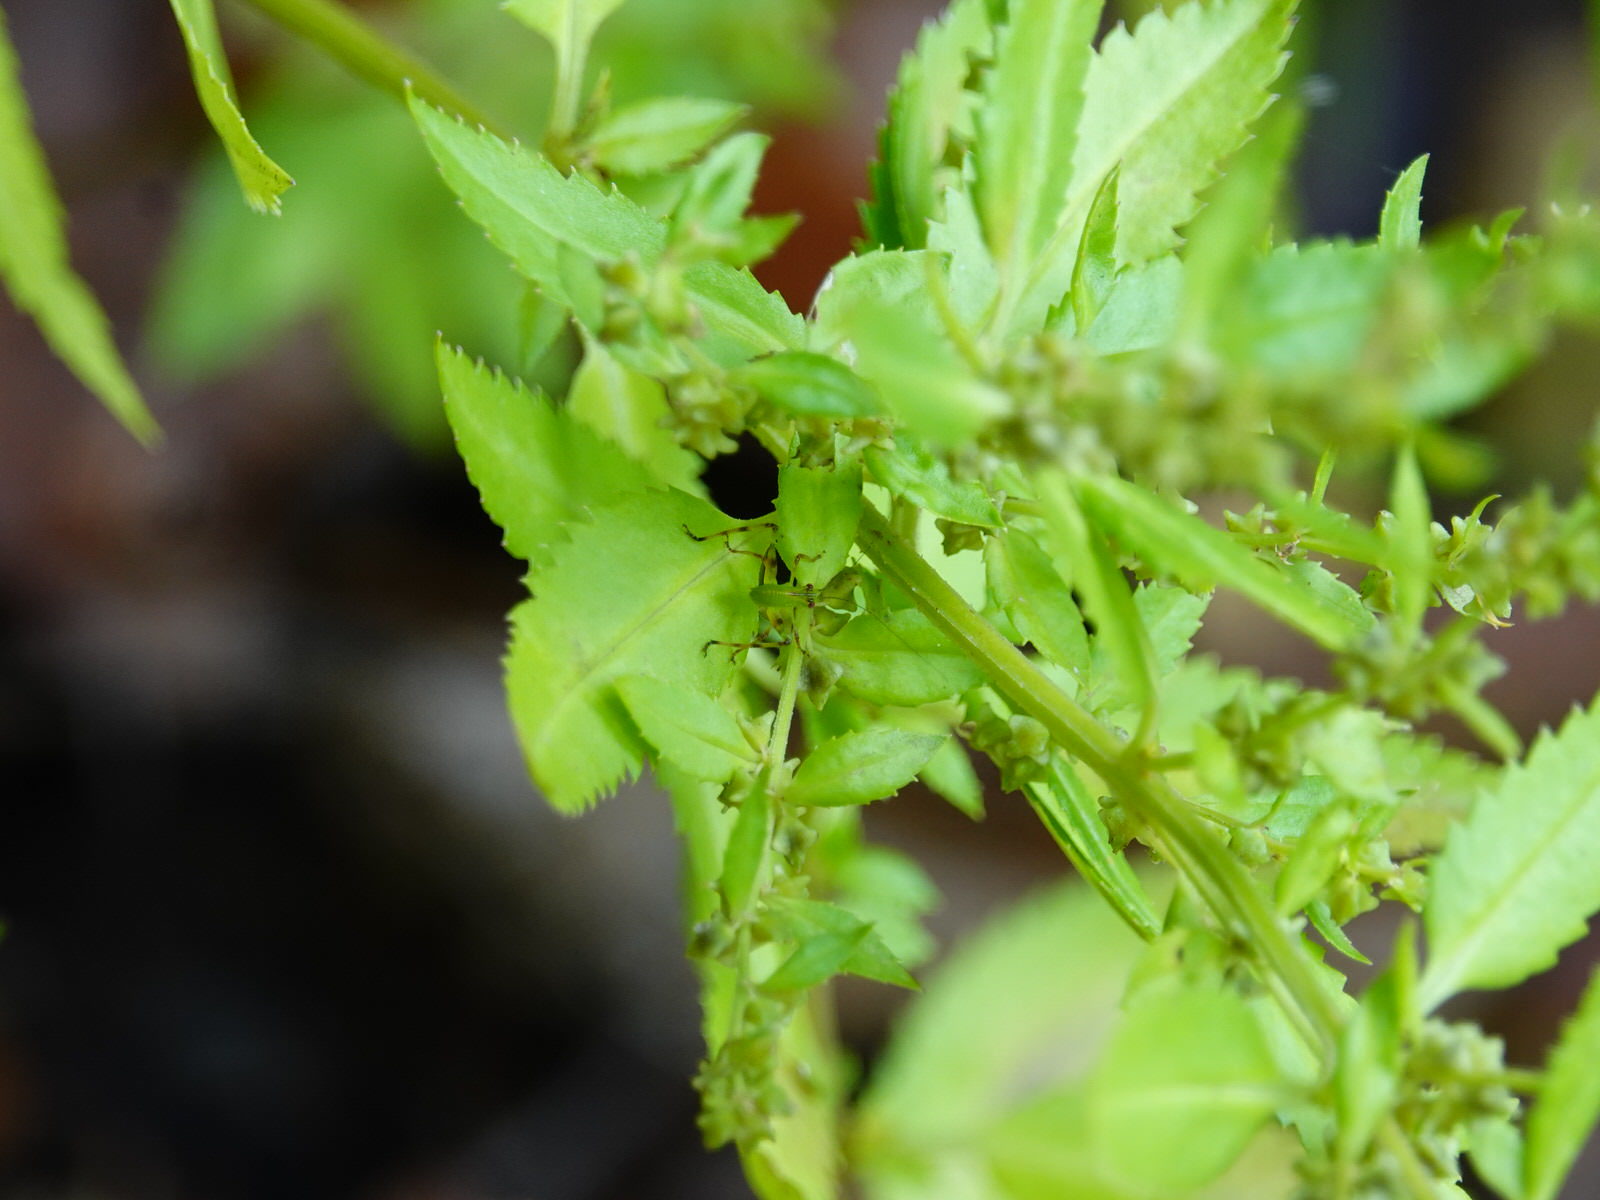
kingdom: Animalia
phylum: Arthropoda
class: Insecta
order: Orthoptera
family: Tettigoniidae
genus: Caedicia
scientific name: Caedicia simplex
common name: Common garden katydid
